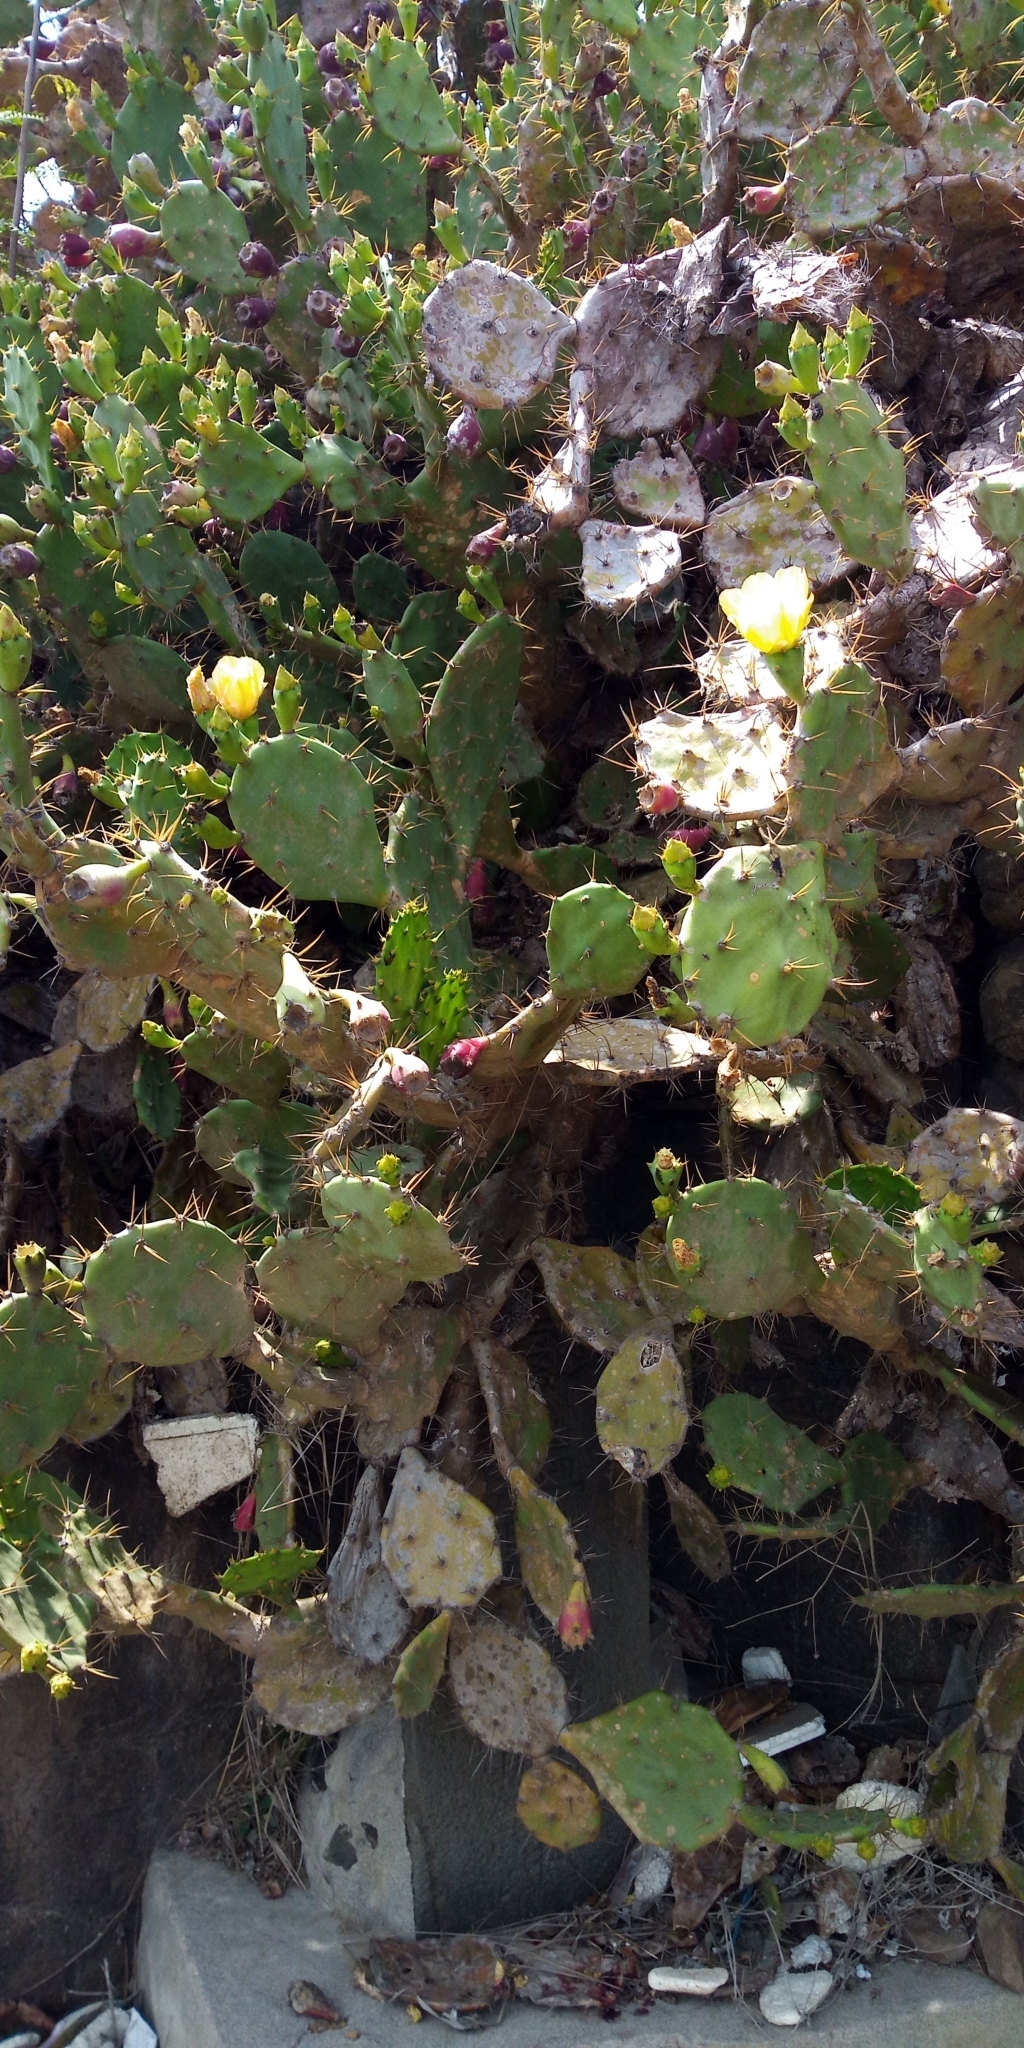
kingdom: Plantae
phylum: Tracheophyta
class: Magnoliopsida
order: Caryophyllales
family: Cactaceae
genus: Opuntia
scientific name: Opuntia dillenii
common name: Sour prickle
